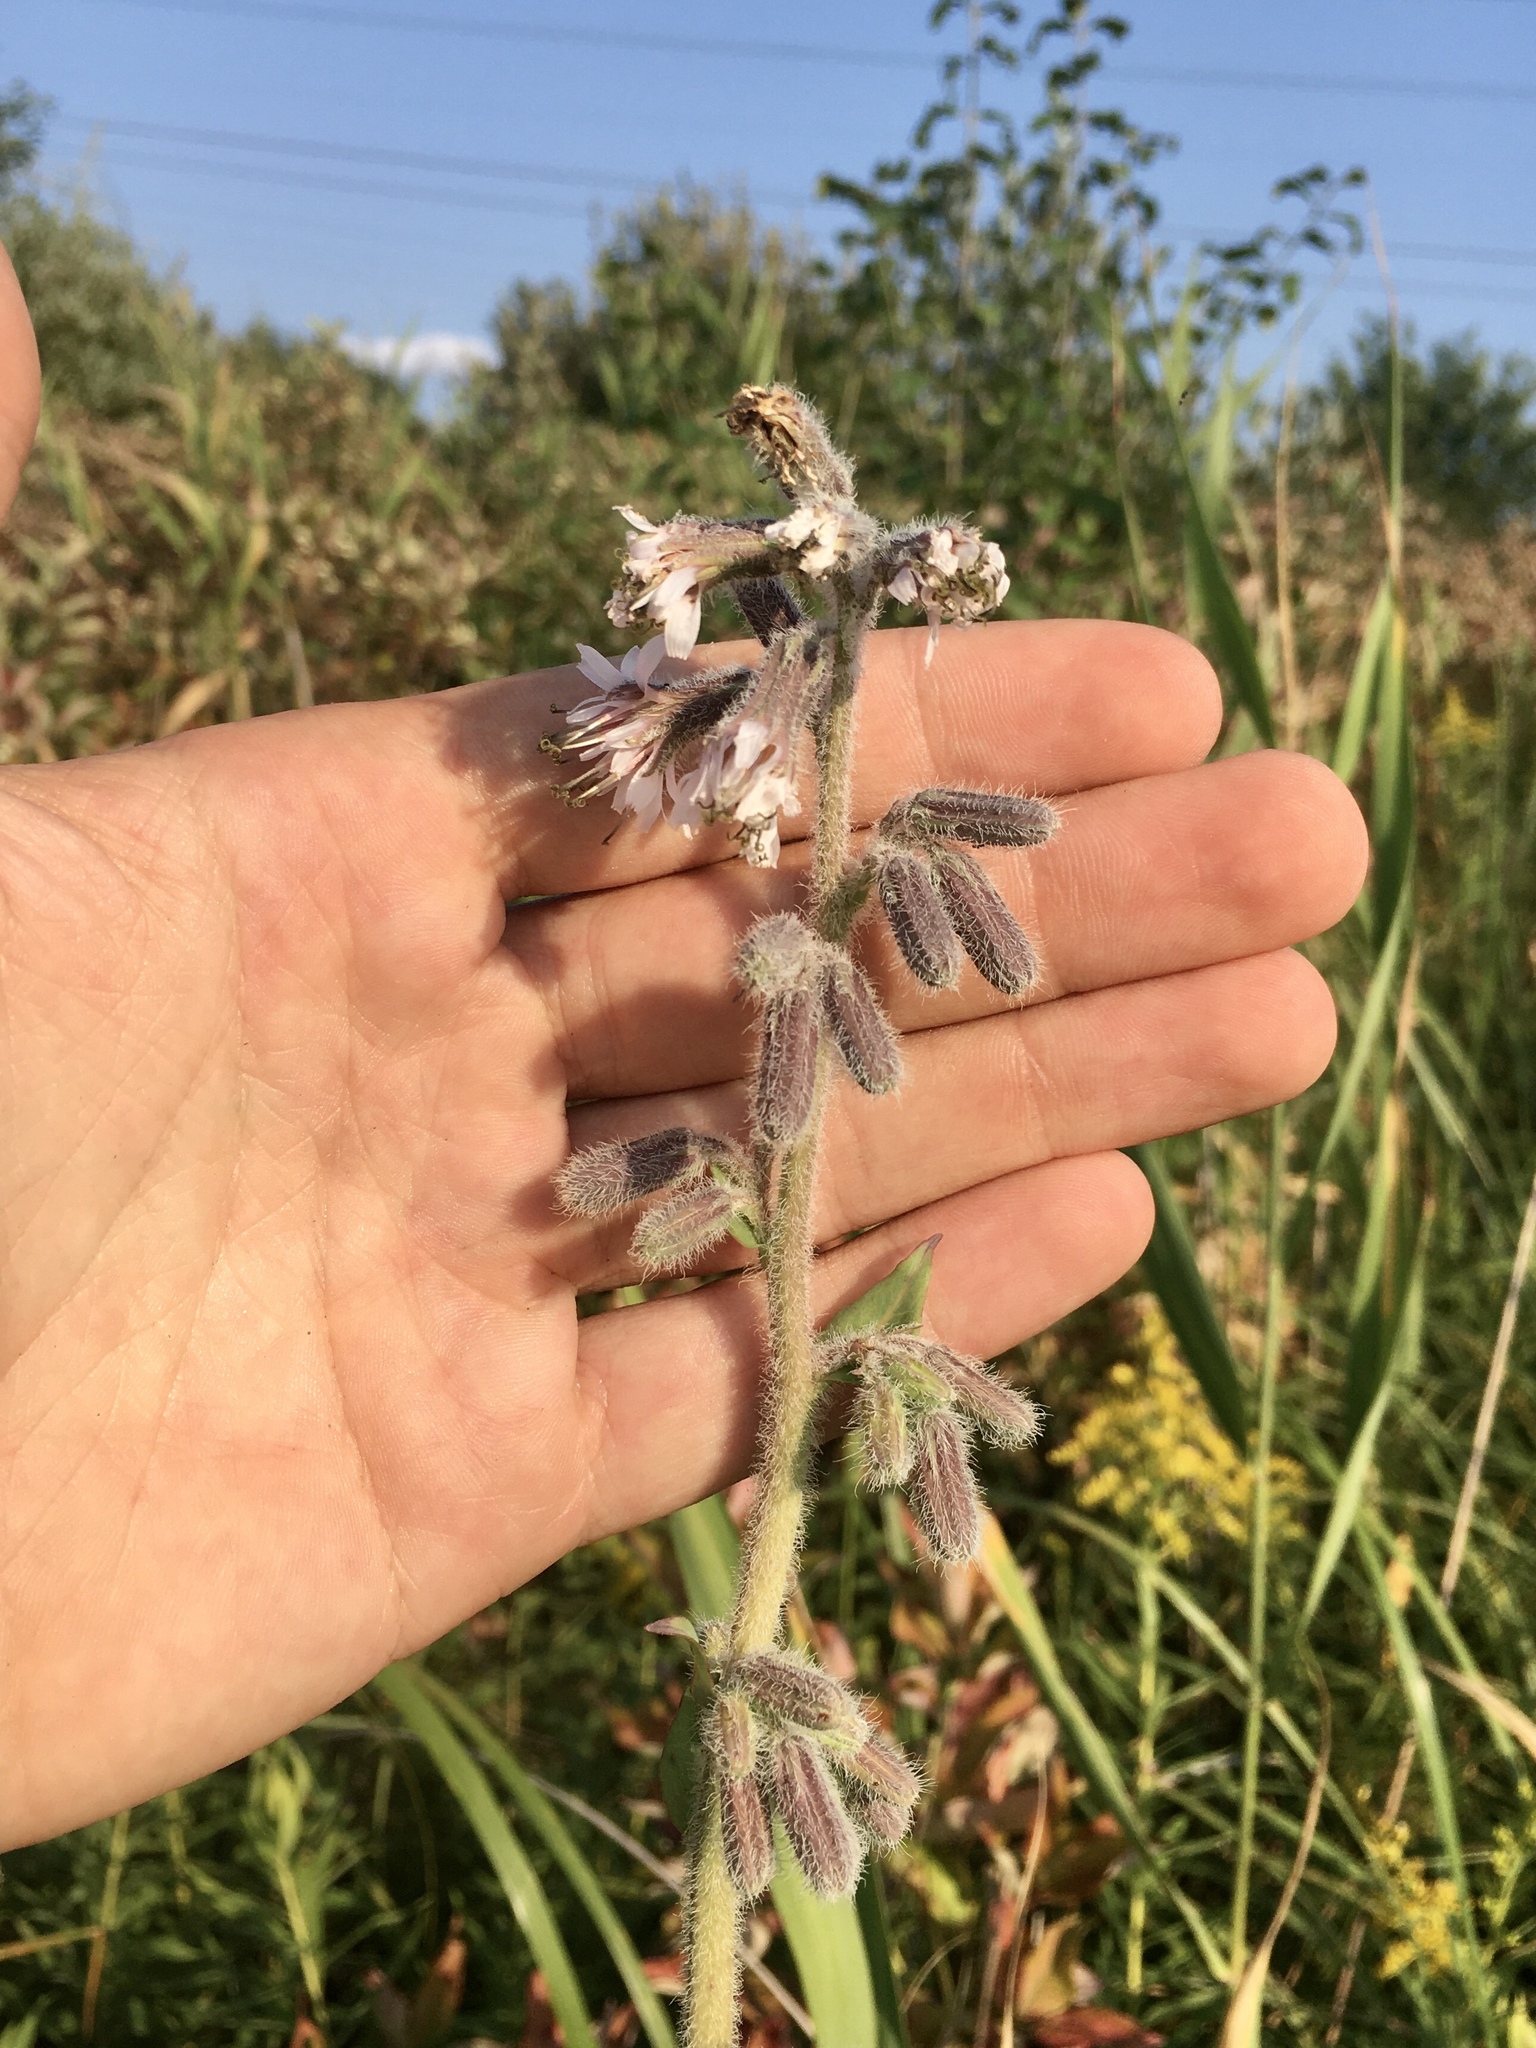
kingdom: Plantae
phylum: Tracheophyta
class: Magnoliopsida
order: Asterales
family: Asteraceae
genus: Nabalus
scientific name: Nabalus racemosus
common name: Glaucous white lettuce
